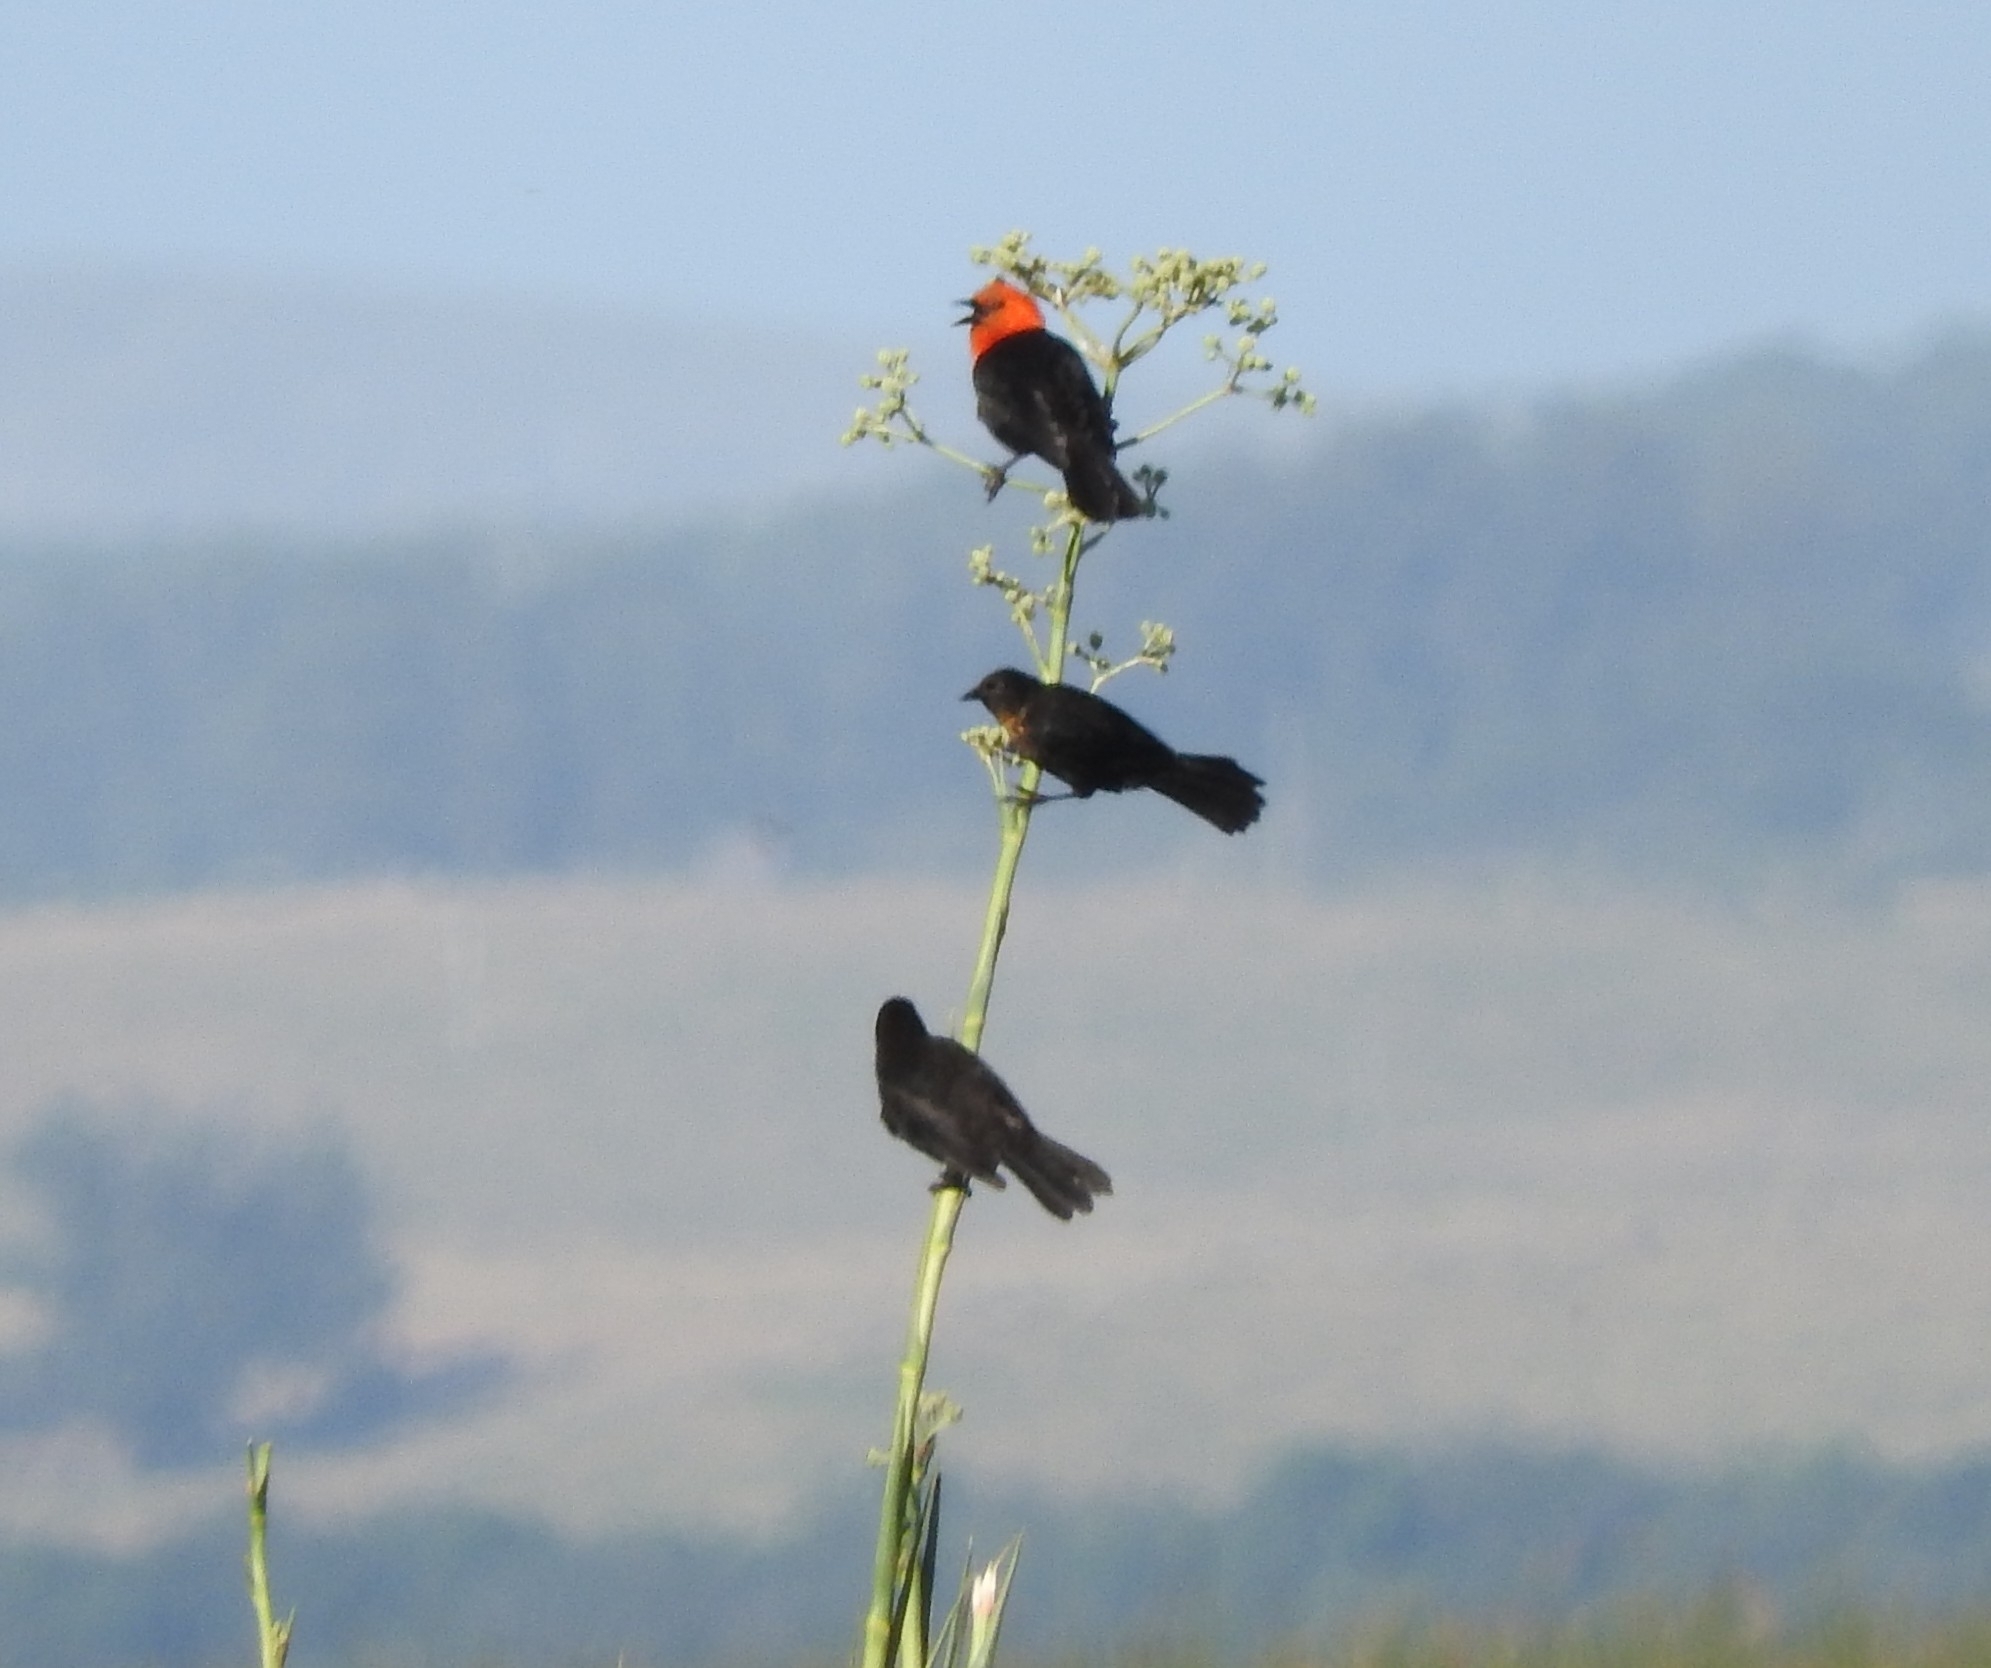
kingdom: Animalia
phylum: Chordata
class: Aves
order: Passeriformes
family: Icteridae
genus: Amblyramphus
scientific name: Amblyramphus holosericeus
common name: Scarlet-headed blackbird
